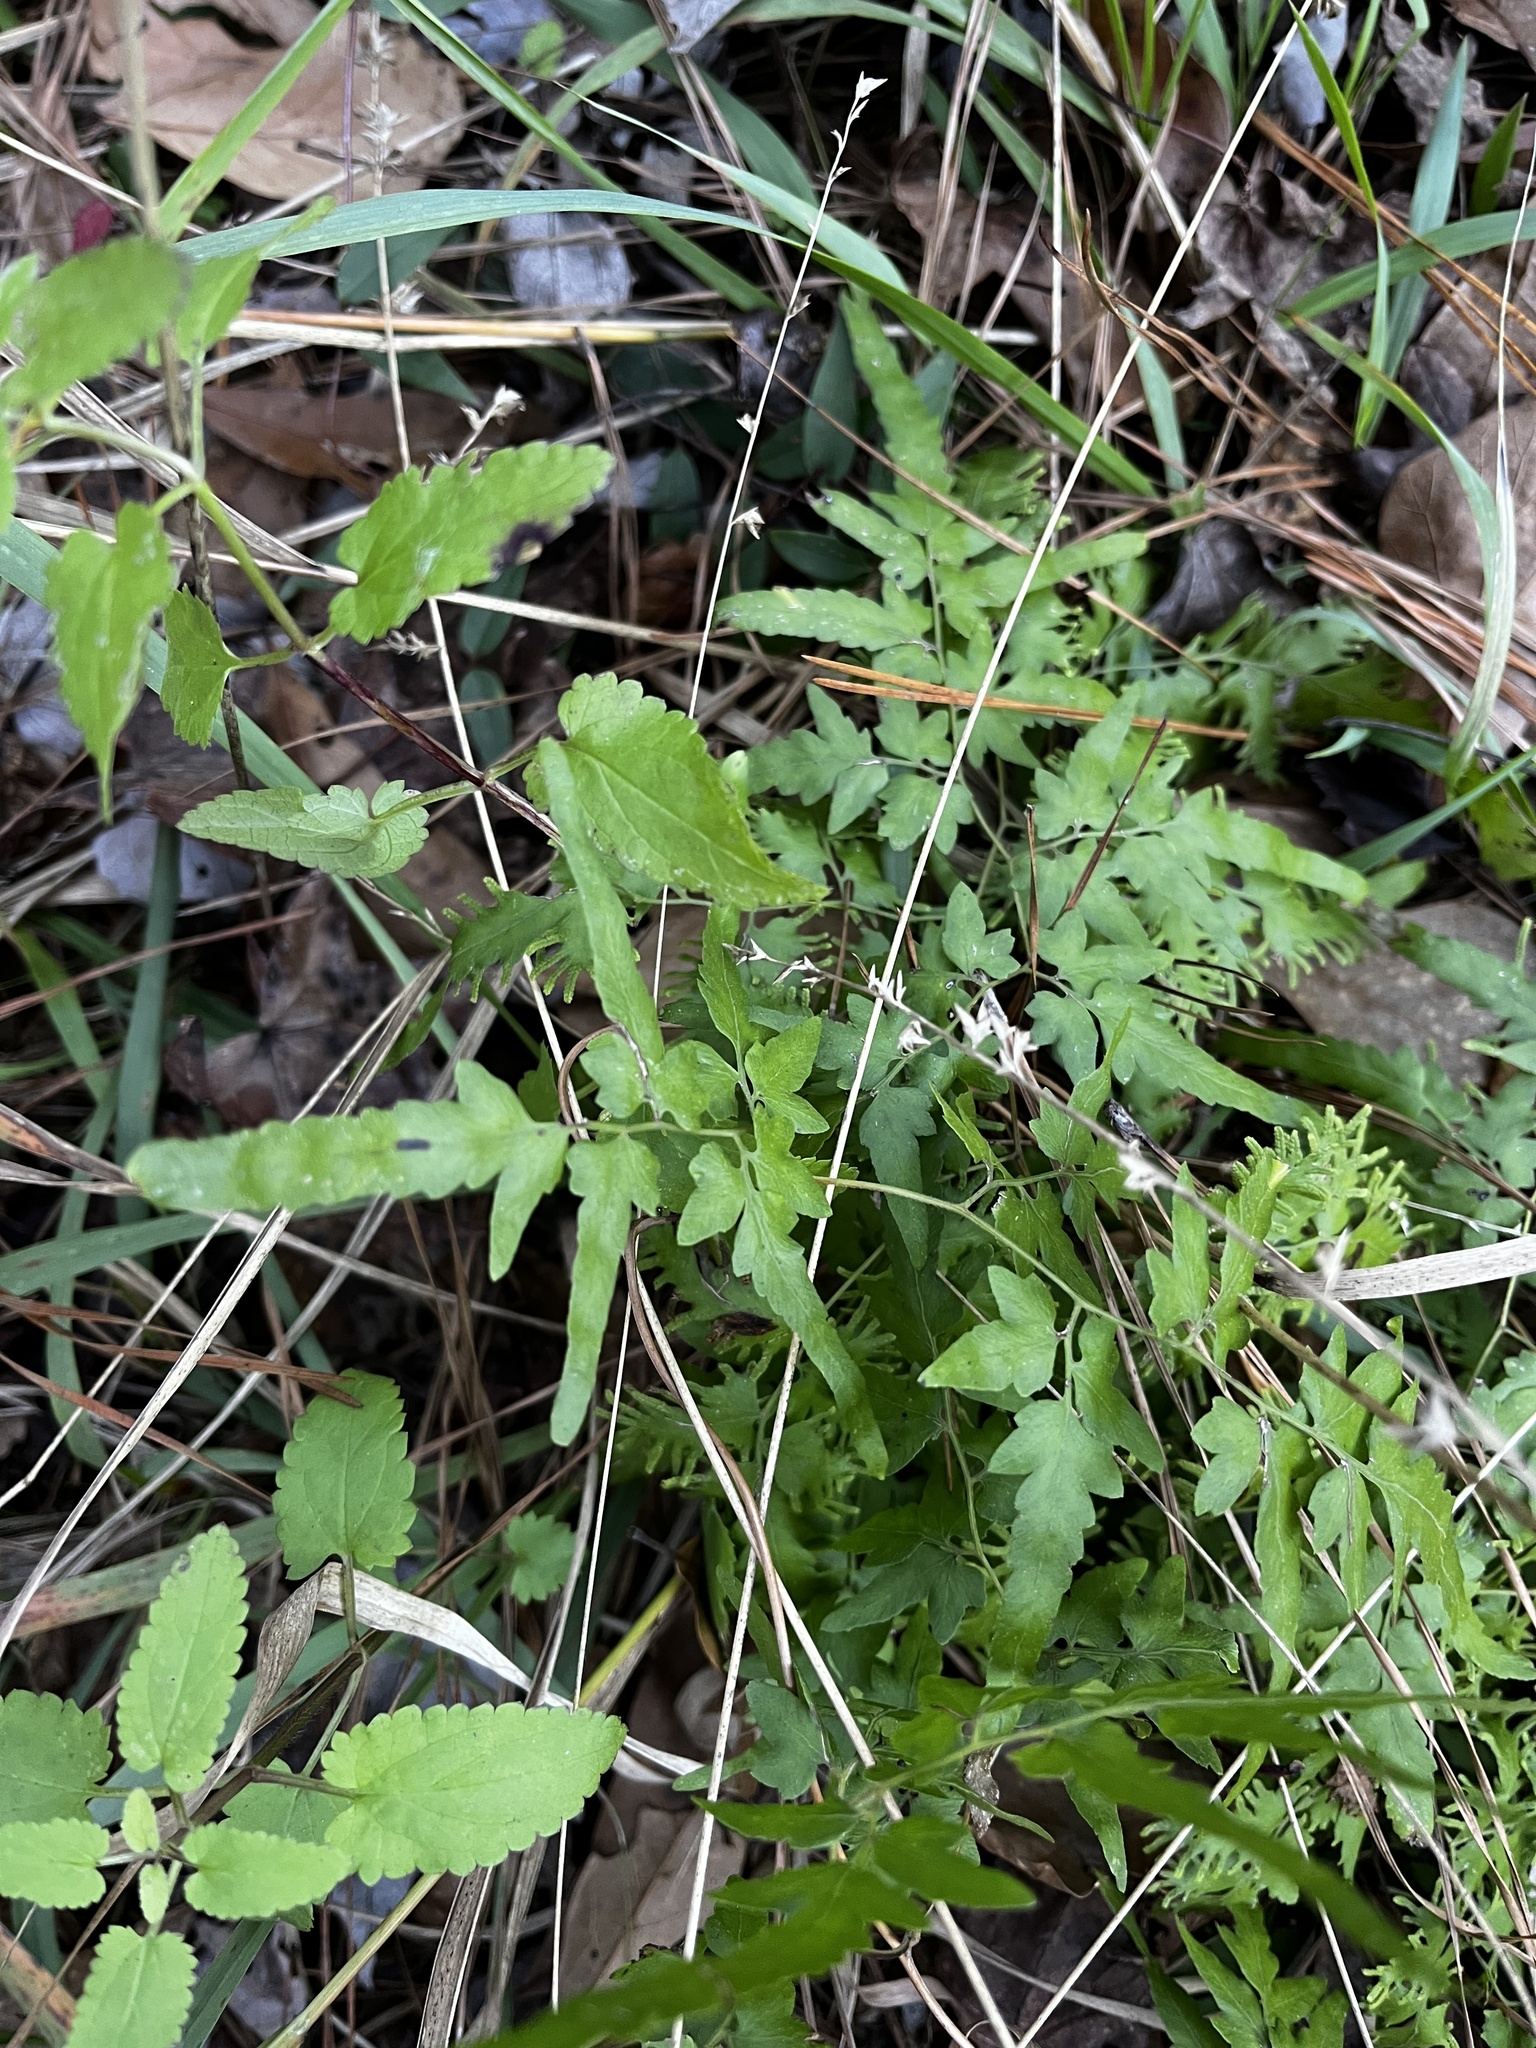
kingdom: Plantae
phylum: Tracheophyta
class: Polypodiopsida
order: Schizaeales
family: Lygodiaceae
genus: Lygodium
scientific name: Lygodium japonicum
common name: Japanese climbing fern
